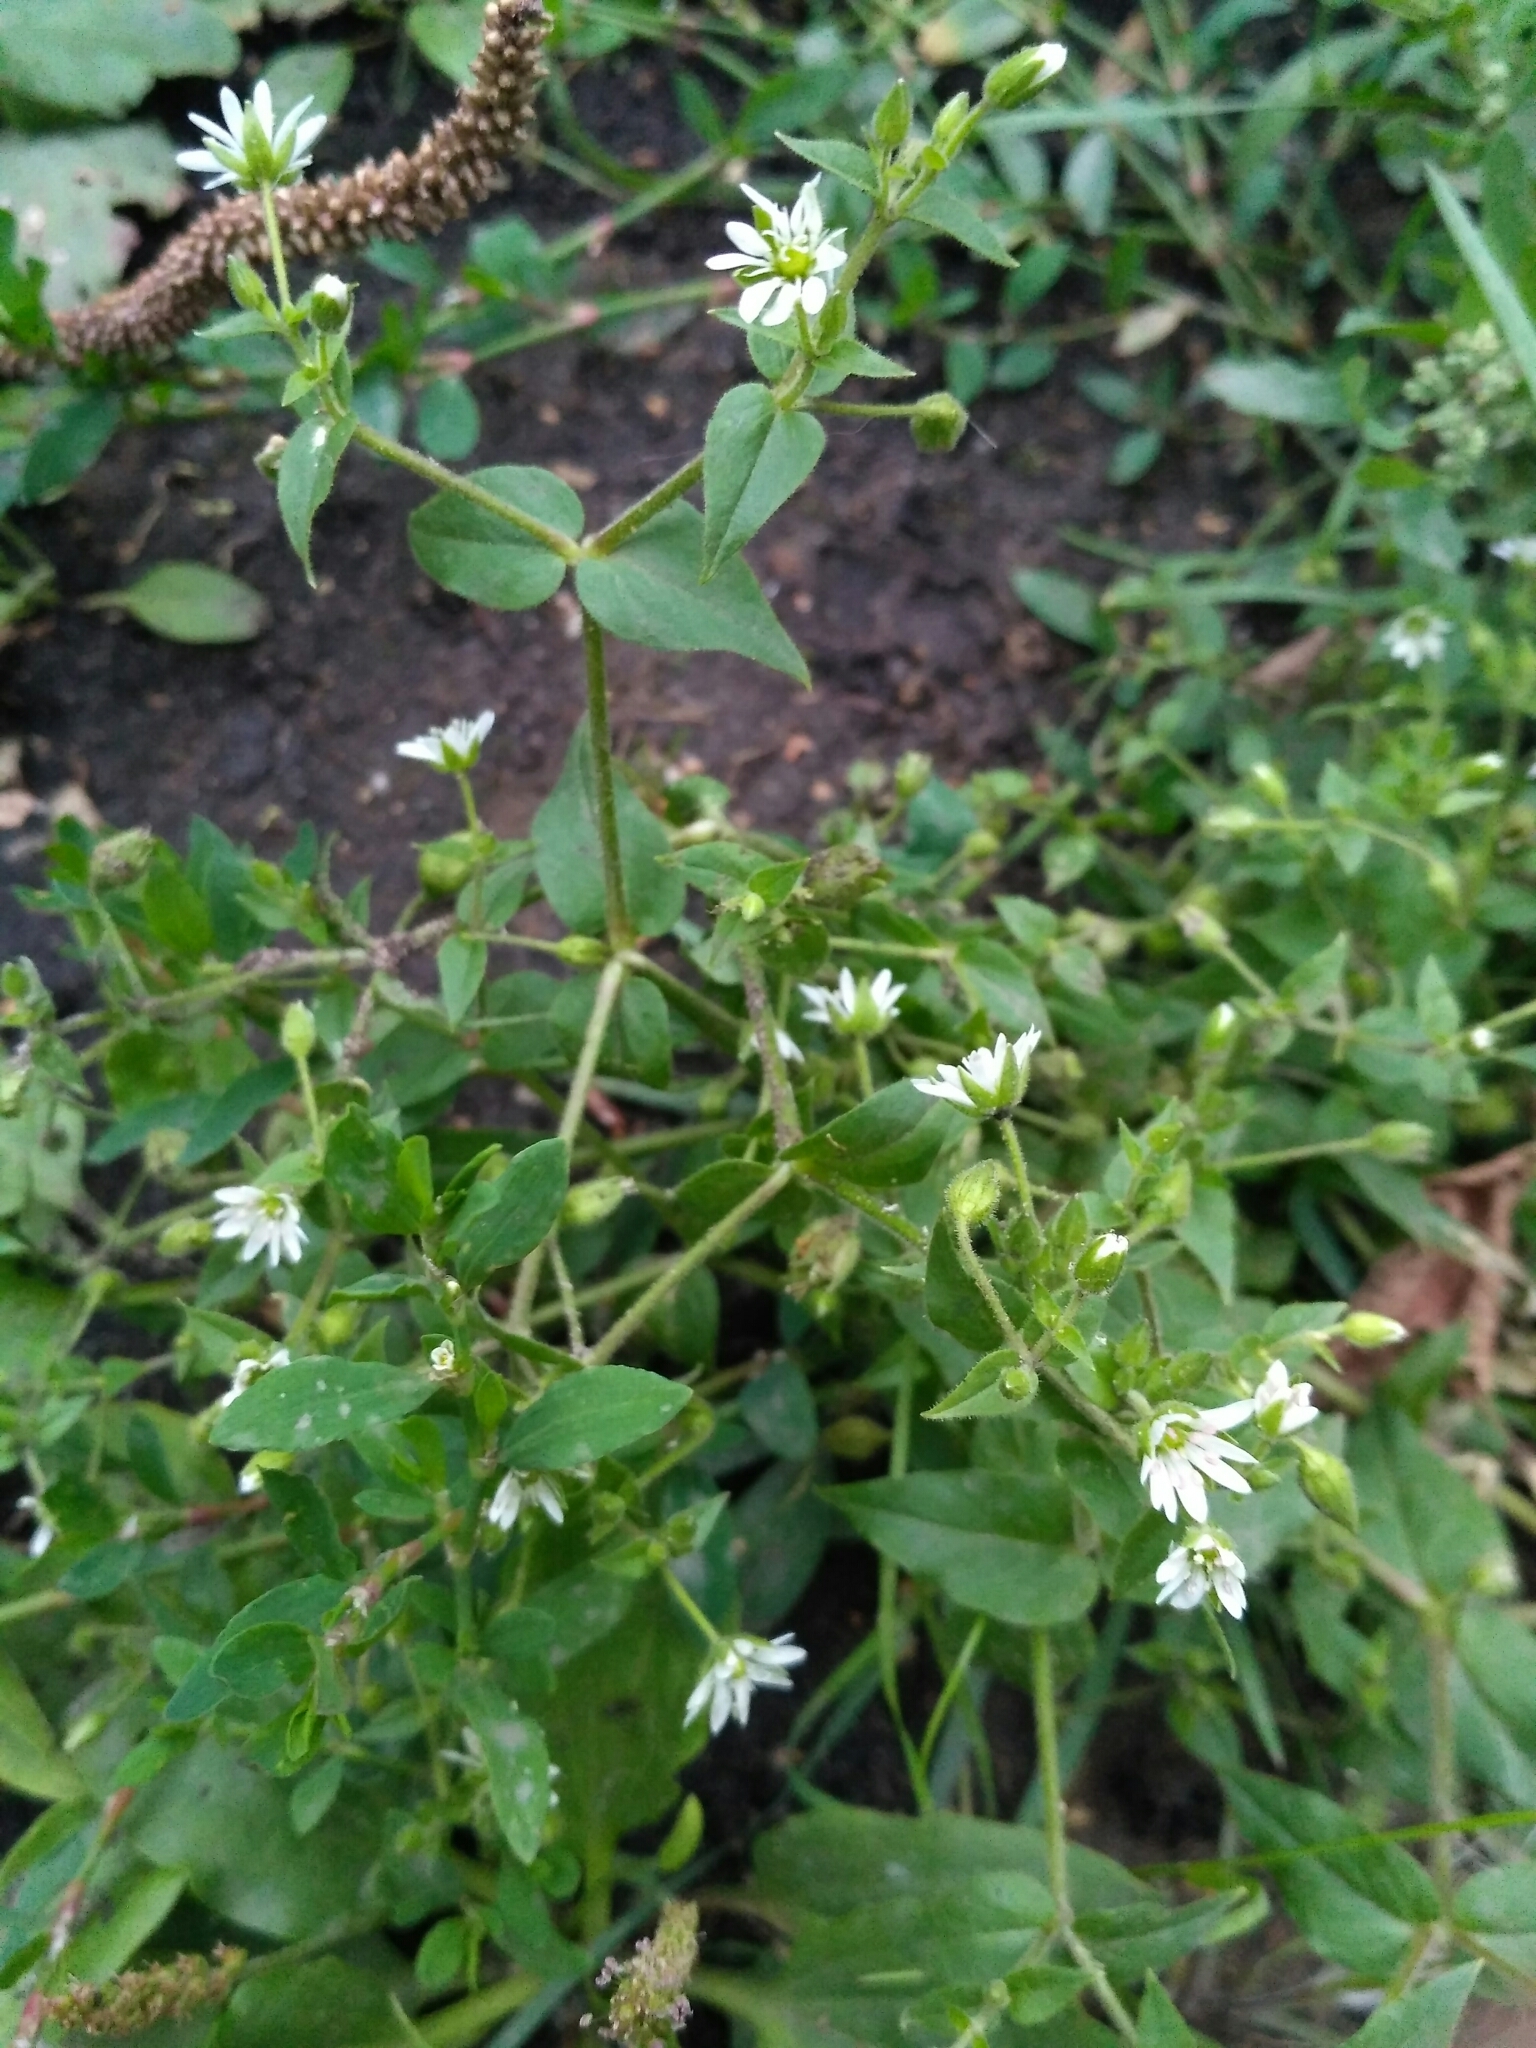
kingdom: Plantae
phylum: Tracheophyta
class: Magnoliopsida
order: Caryophyllales
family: Caryophyllaceae
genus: Stellaria
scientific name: Stellaria aquatica
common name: Water chickweed
